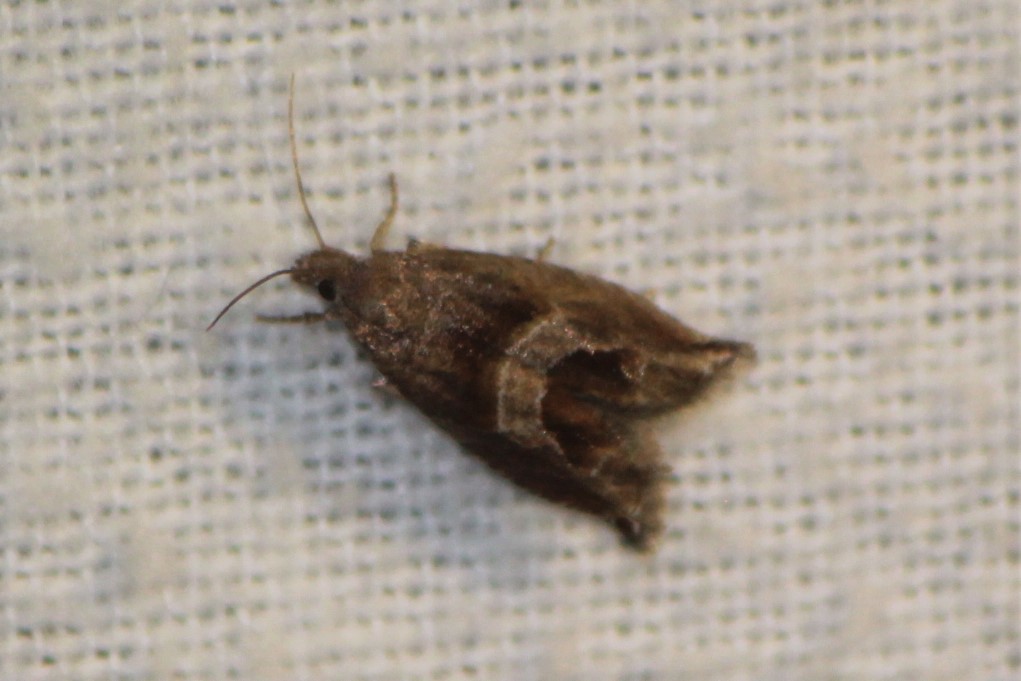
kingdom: Animalia
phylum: Arthropoda
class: Insecta
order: Lepidoptera
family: Tortricidae
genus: Sonia
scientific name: Sonia canadana
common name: Canadian sonia moth
